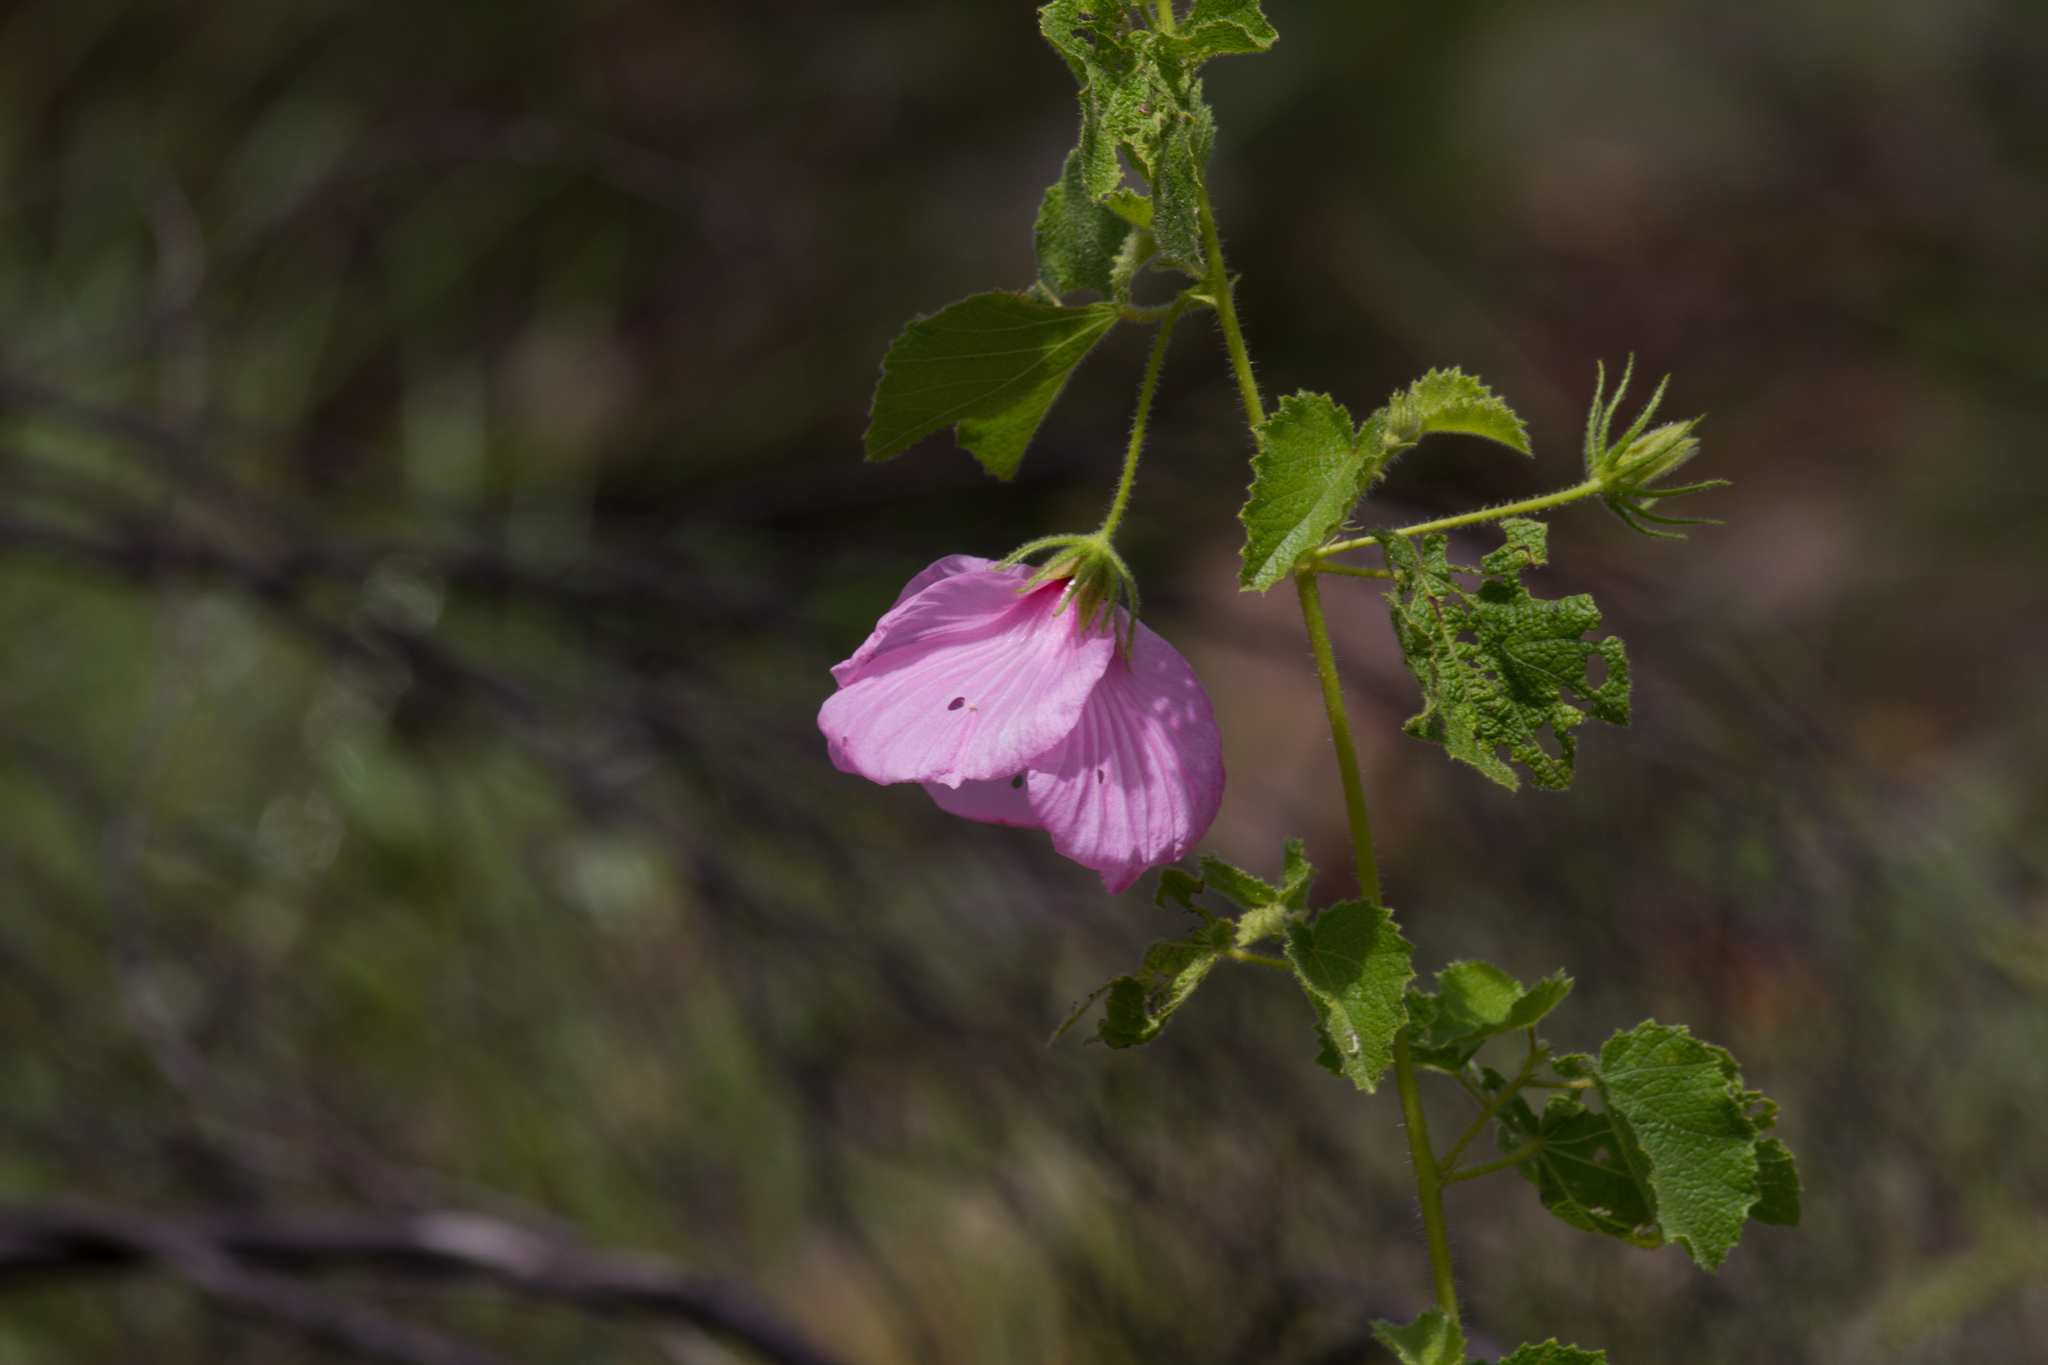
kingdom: Plantae
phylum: Tracheophyta
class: Magnoliopsida
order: Malvales
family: Malvaceae
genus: Hibiscus
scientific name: Hibiscus menzeliae
